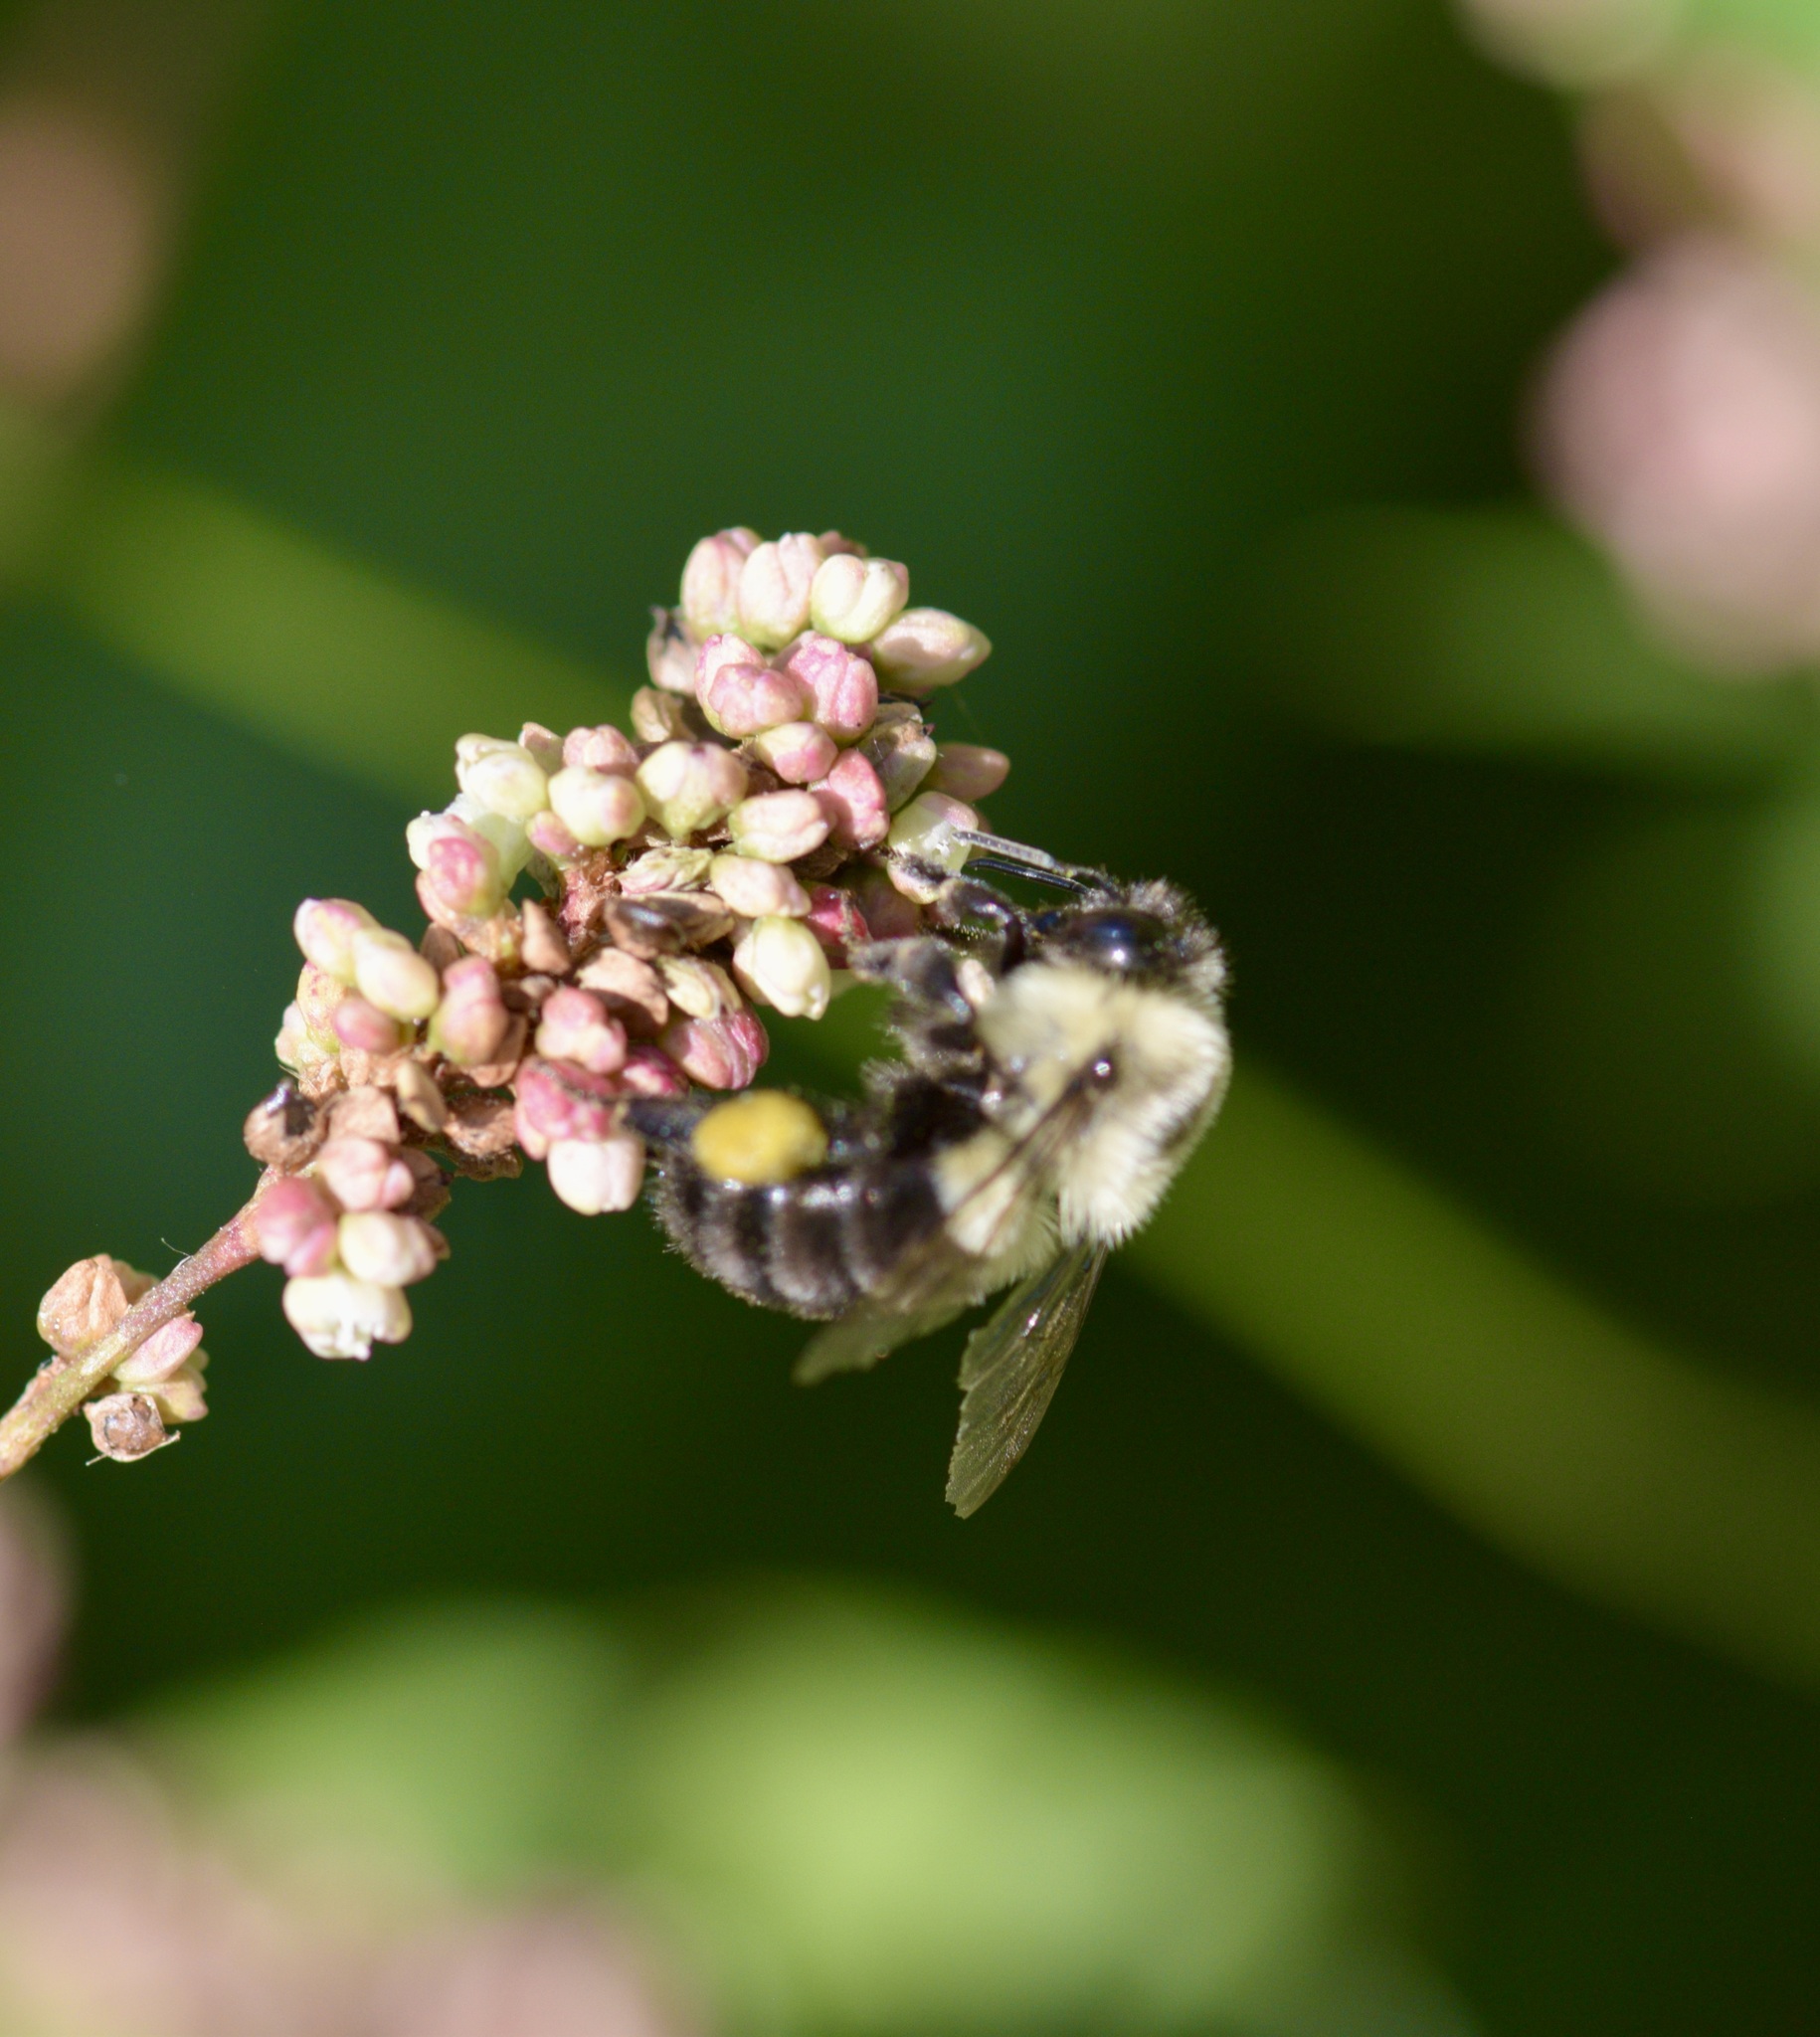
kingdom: Animalia
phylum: Arthropoda
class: Insecta
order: Hymenoptera
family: Apidae
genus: Bombus
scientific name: Bombus impatiens
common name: Common eastern bumble bee
